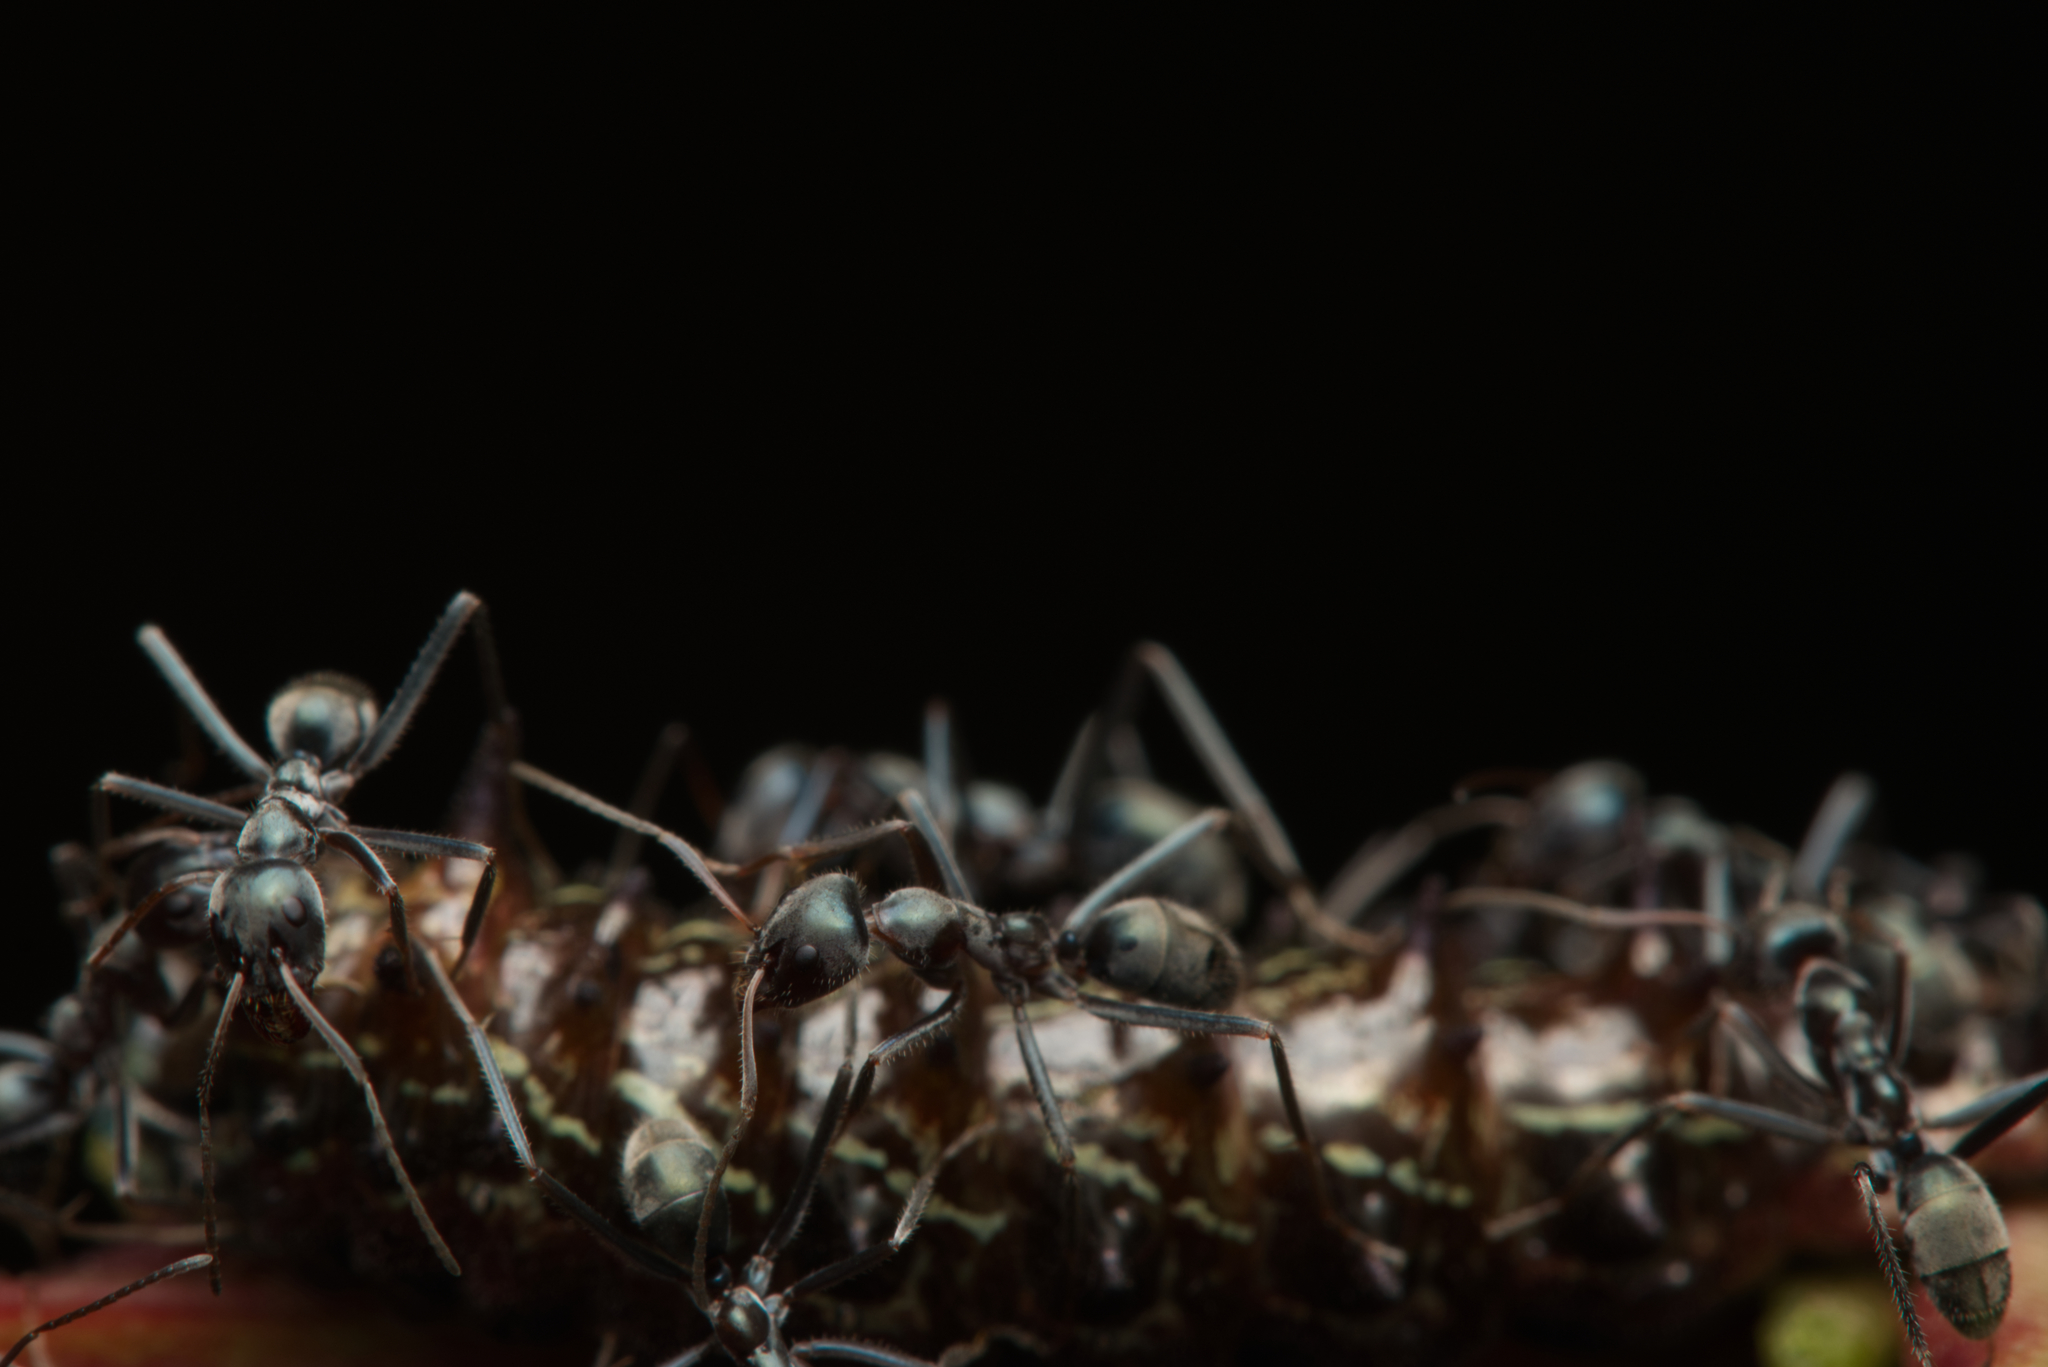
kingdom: Animalia
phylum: Arthropoda
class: Insecta
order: Hymenoptera
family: Formicidae
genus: Iridomyrmex
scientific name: Iridomyrmex
